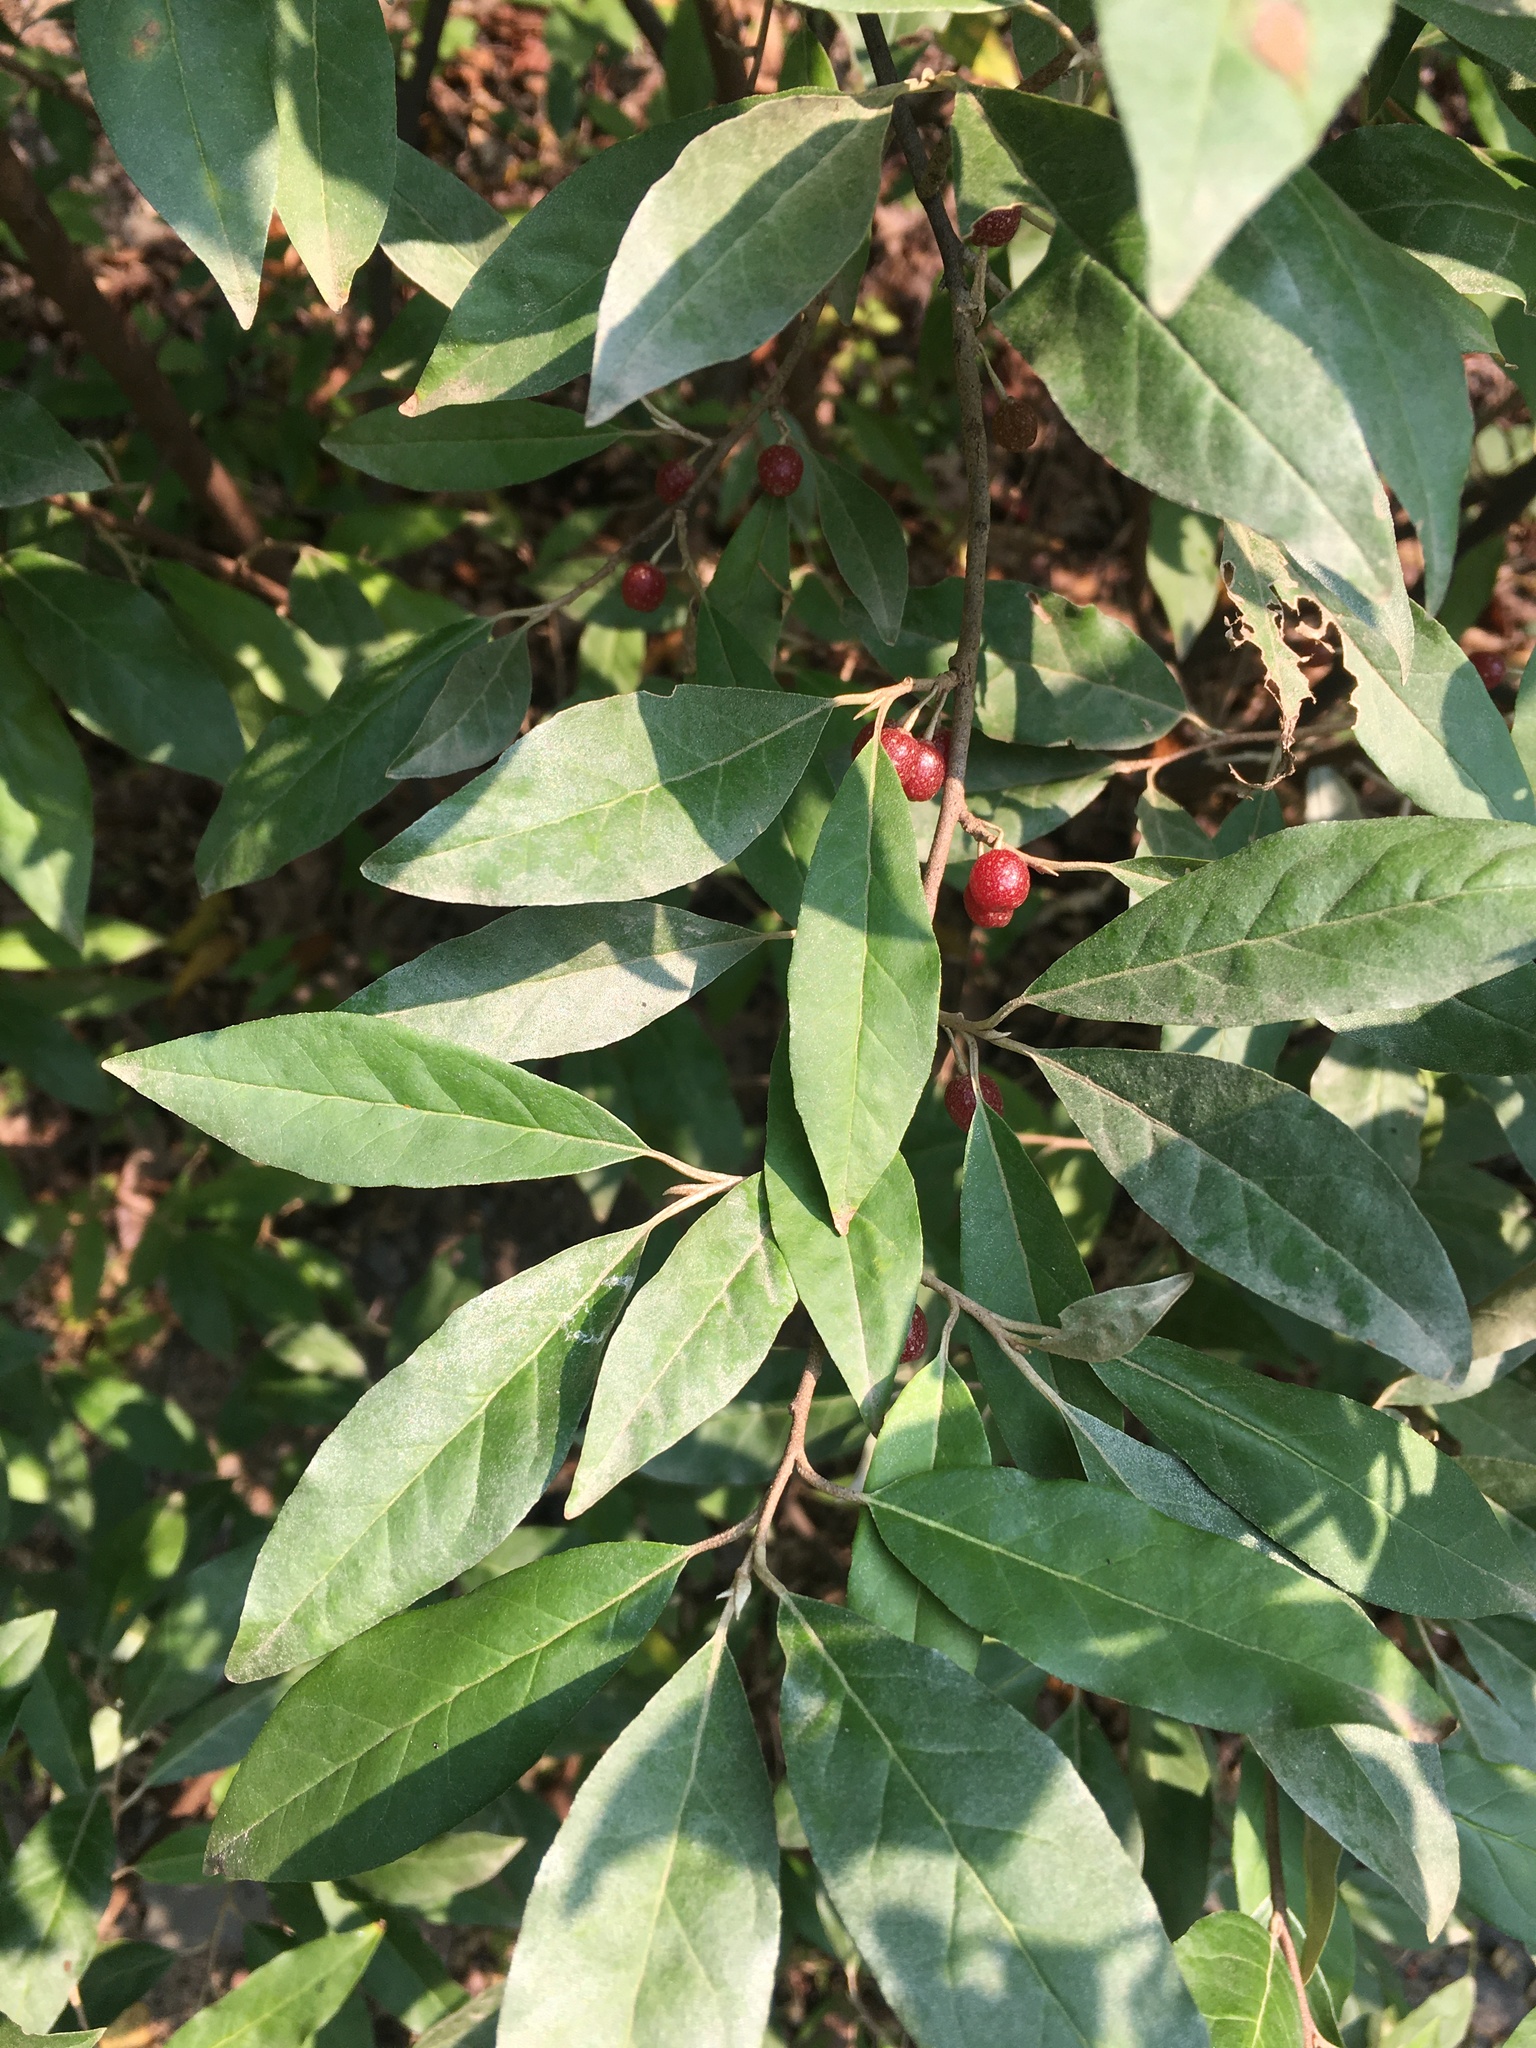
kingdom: Plantae
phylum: Tracheophyta
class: Magnoliopsida
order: Rosales
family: Elaeagnaceae
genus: Elaeagnus
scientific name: Elaeagnus umbellata
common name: Autumn olive
